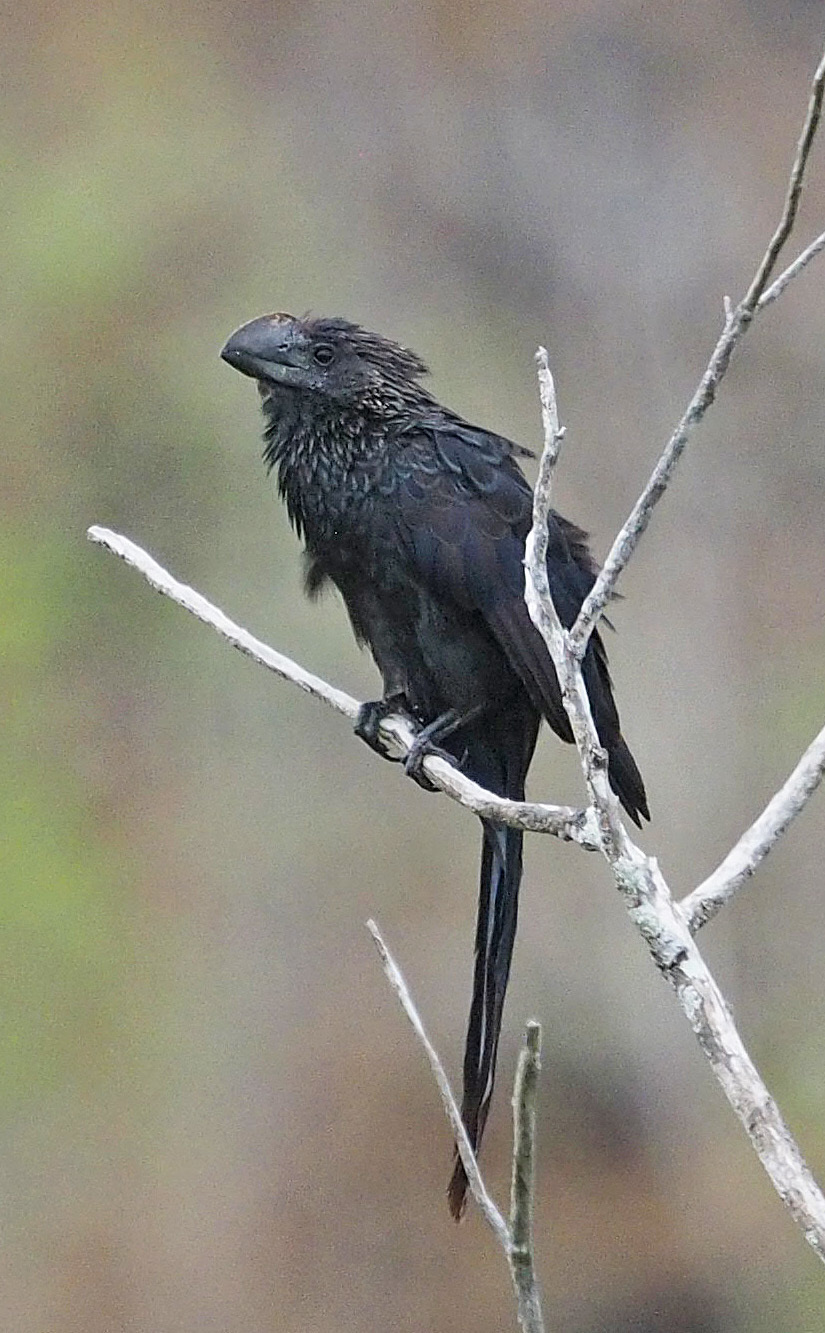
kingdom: Animalia
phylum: Chordata
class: Aves
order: Cuculiformes
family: Cuculidae
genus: Crotophaga
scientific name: Crotophaga ani
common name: Smooth-billed ani
